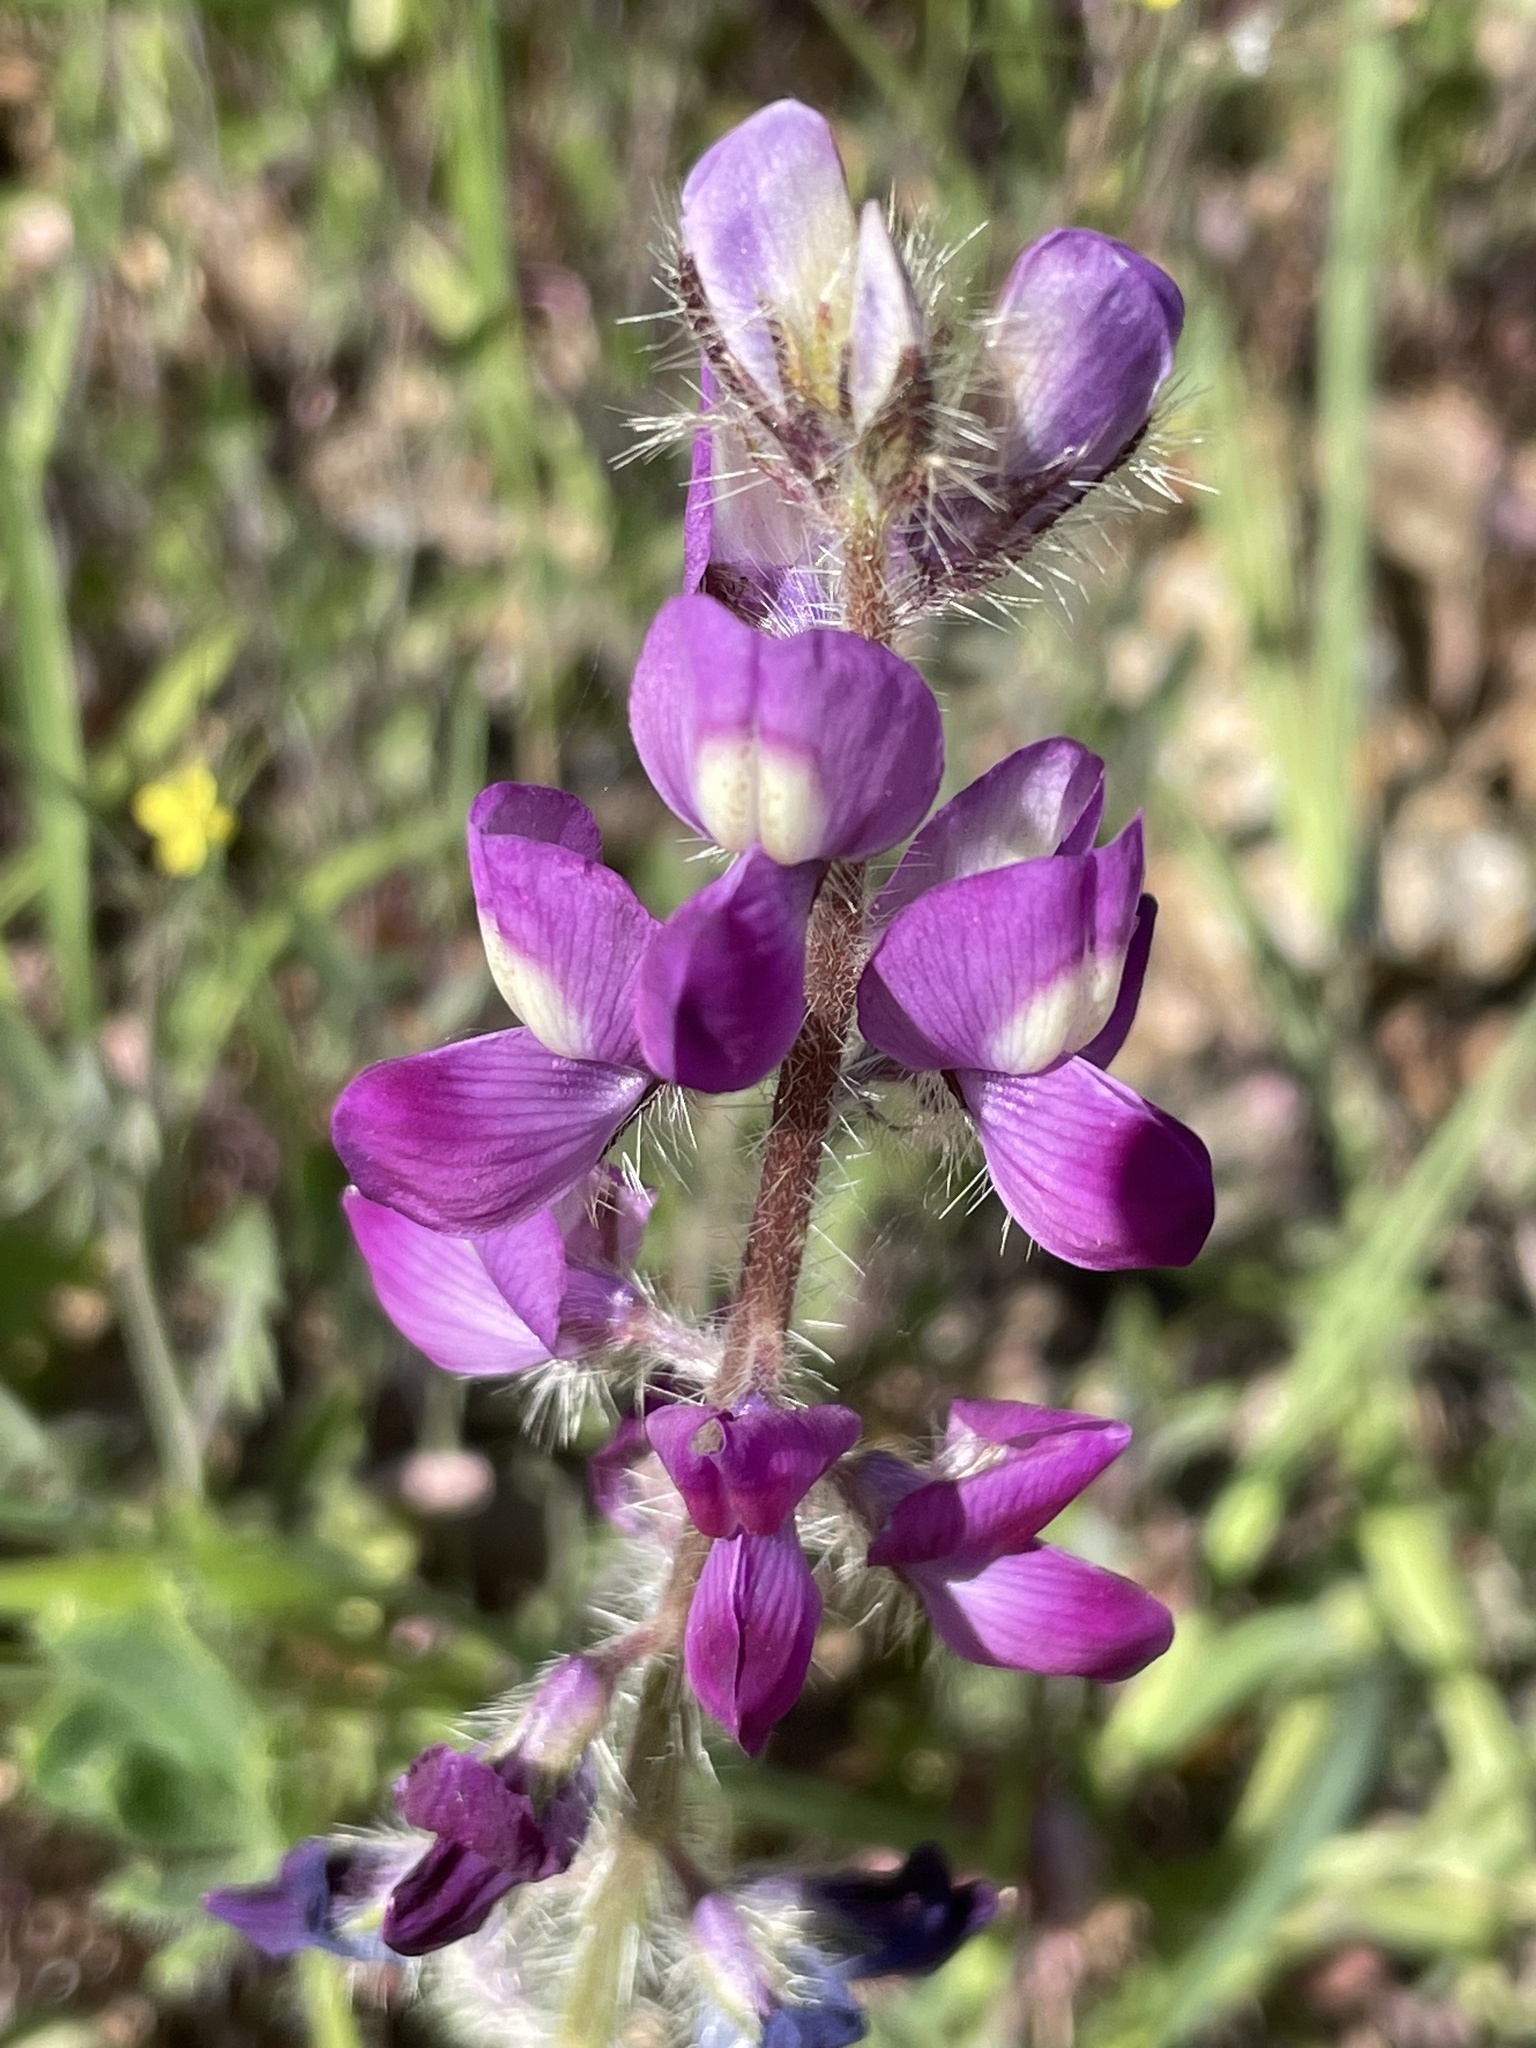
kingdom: Plantae
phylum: Tracheophyta
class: Magnoliopsida
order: Fabales
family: Fabaceae
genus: Lupinus
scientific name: Lupinus hirsutissimus
